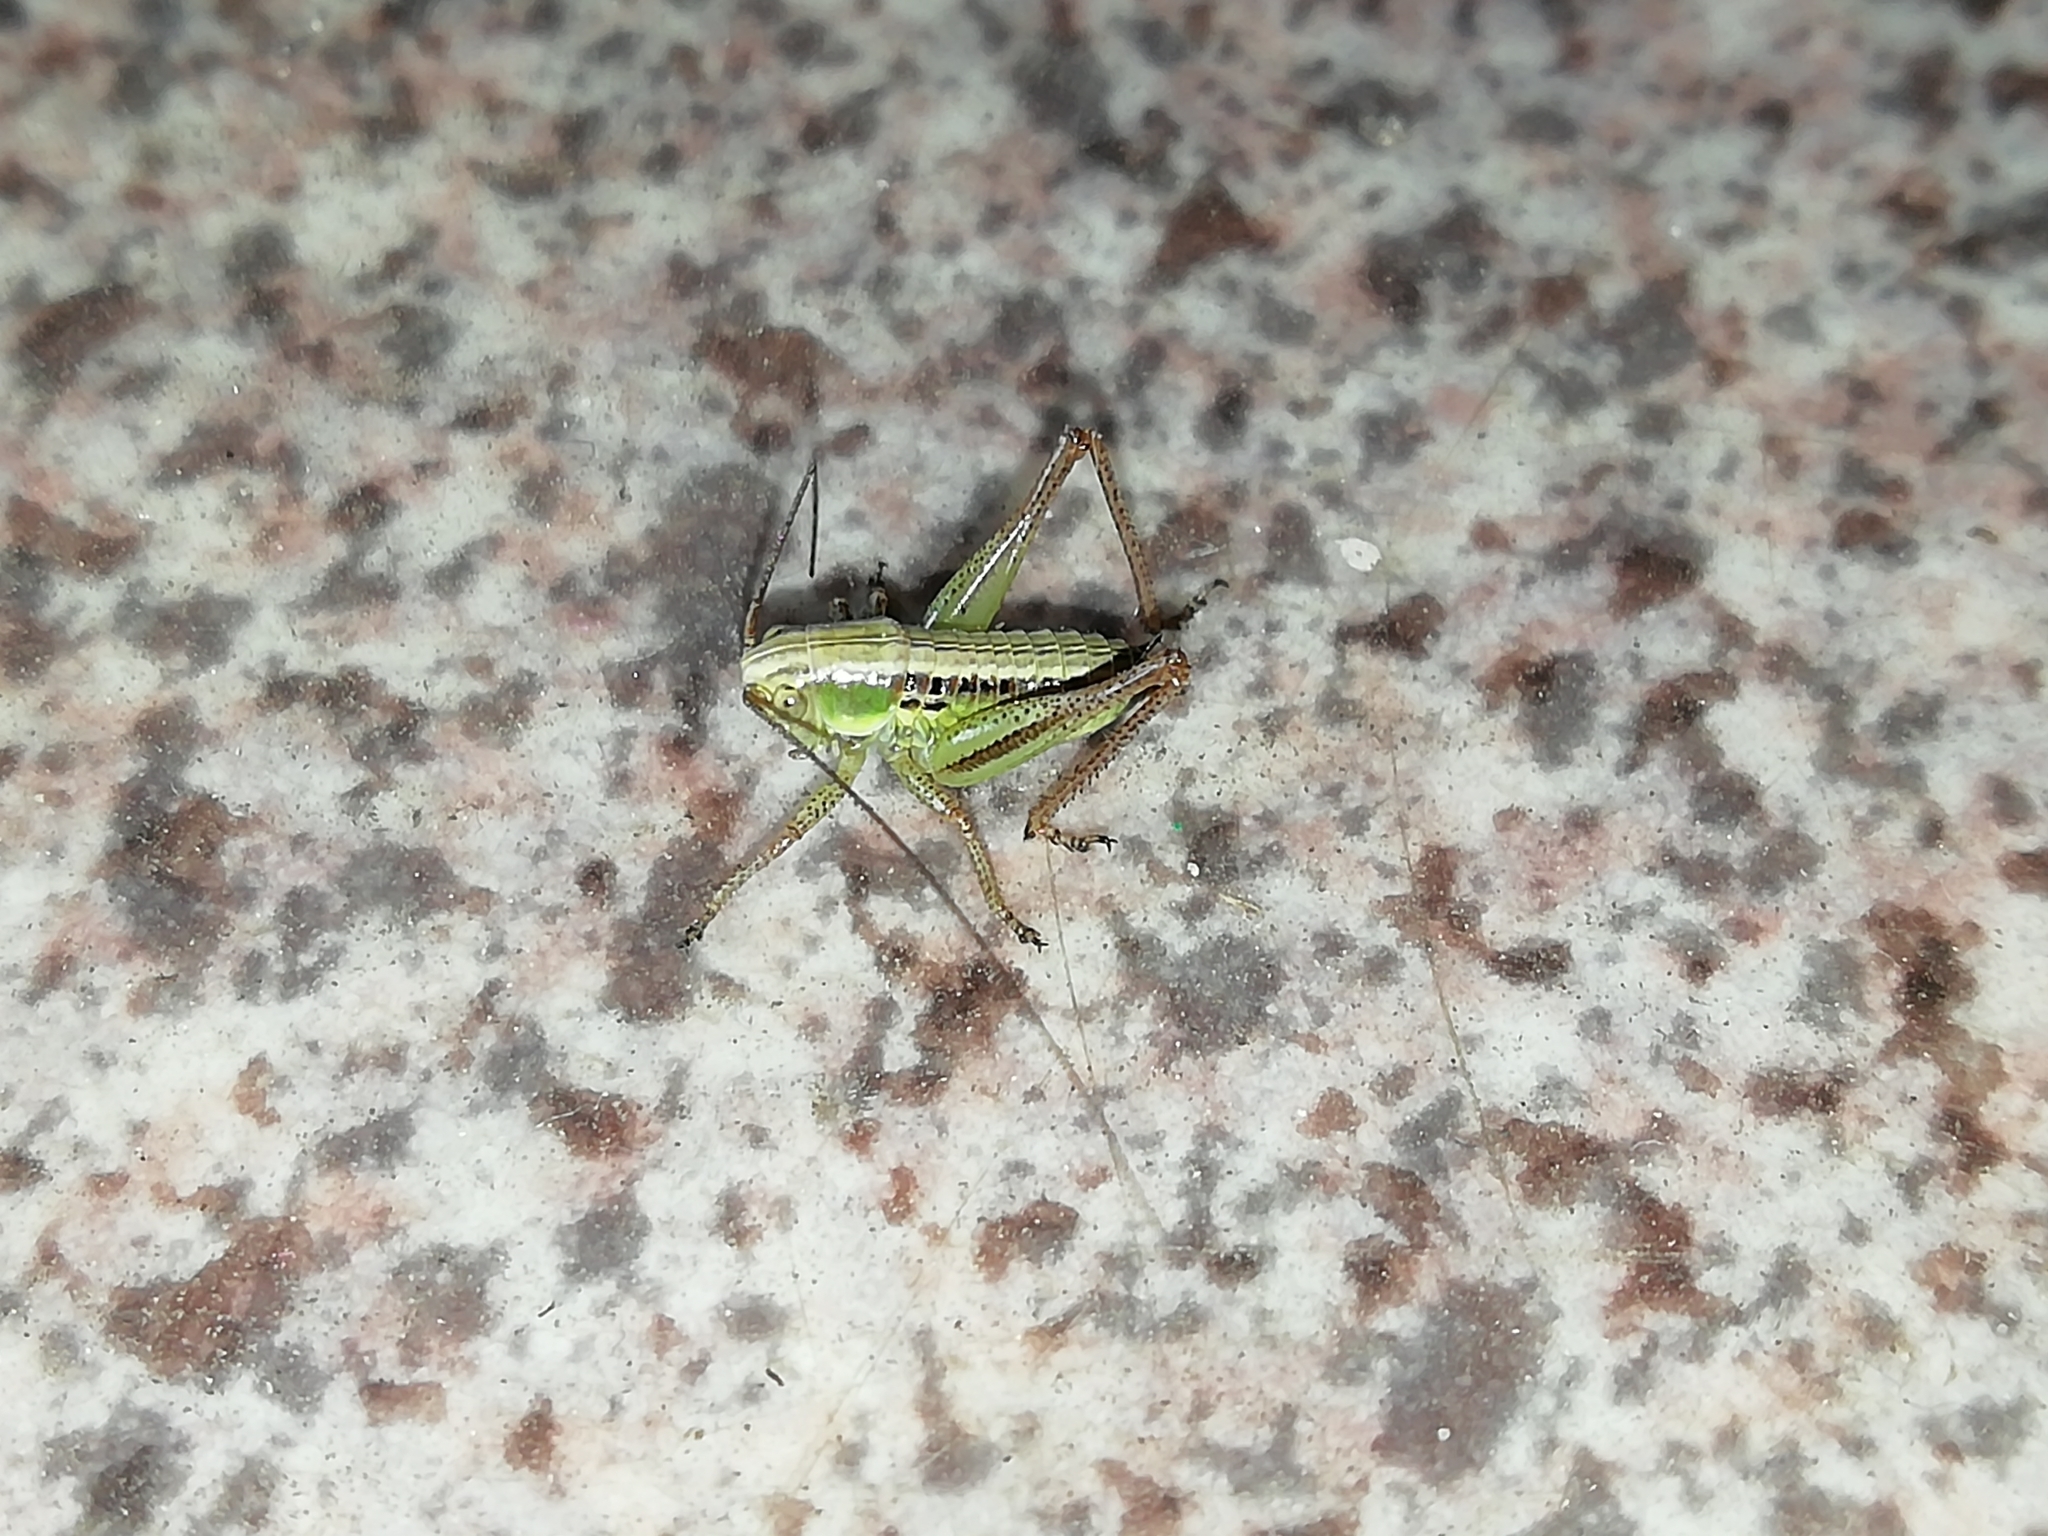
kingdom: Animalia
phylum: Arthropoda
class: Insecta
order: Orthoptera
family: Tettigoniidae
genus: Roeseliana
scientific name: Roeseliana roeselii
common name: Roesel's bush cricket
